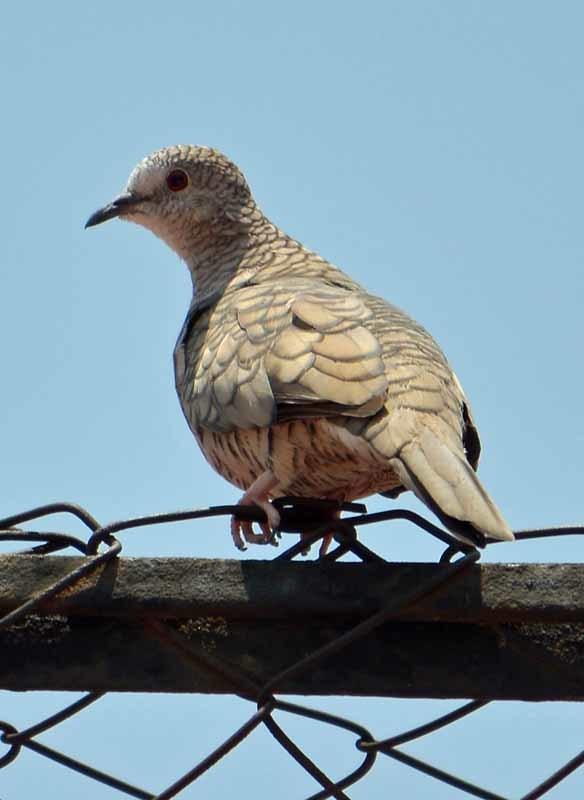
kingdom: Animalia
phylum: Chordata
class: Aves
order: Columbiformes
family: Columbidae
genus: Columbina
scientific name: Columbina inca
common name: Inca dove
